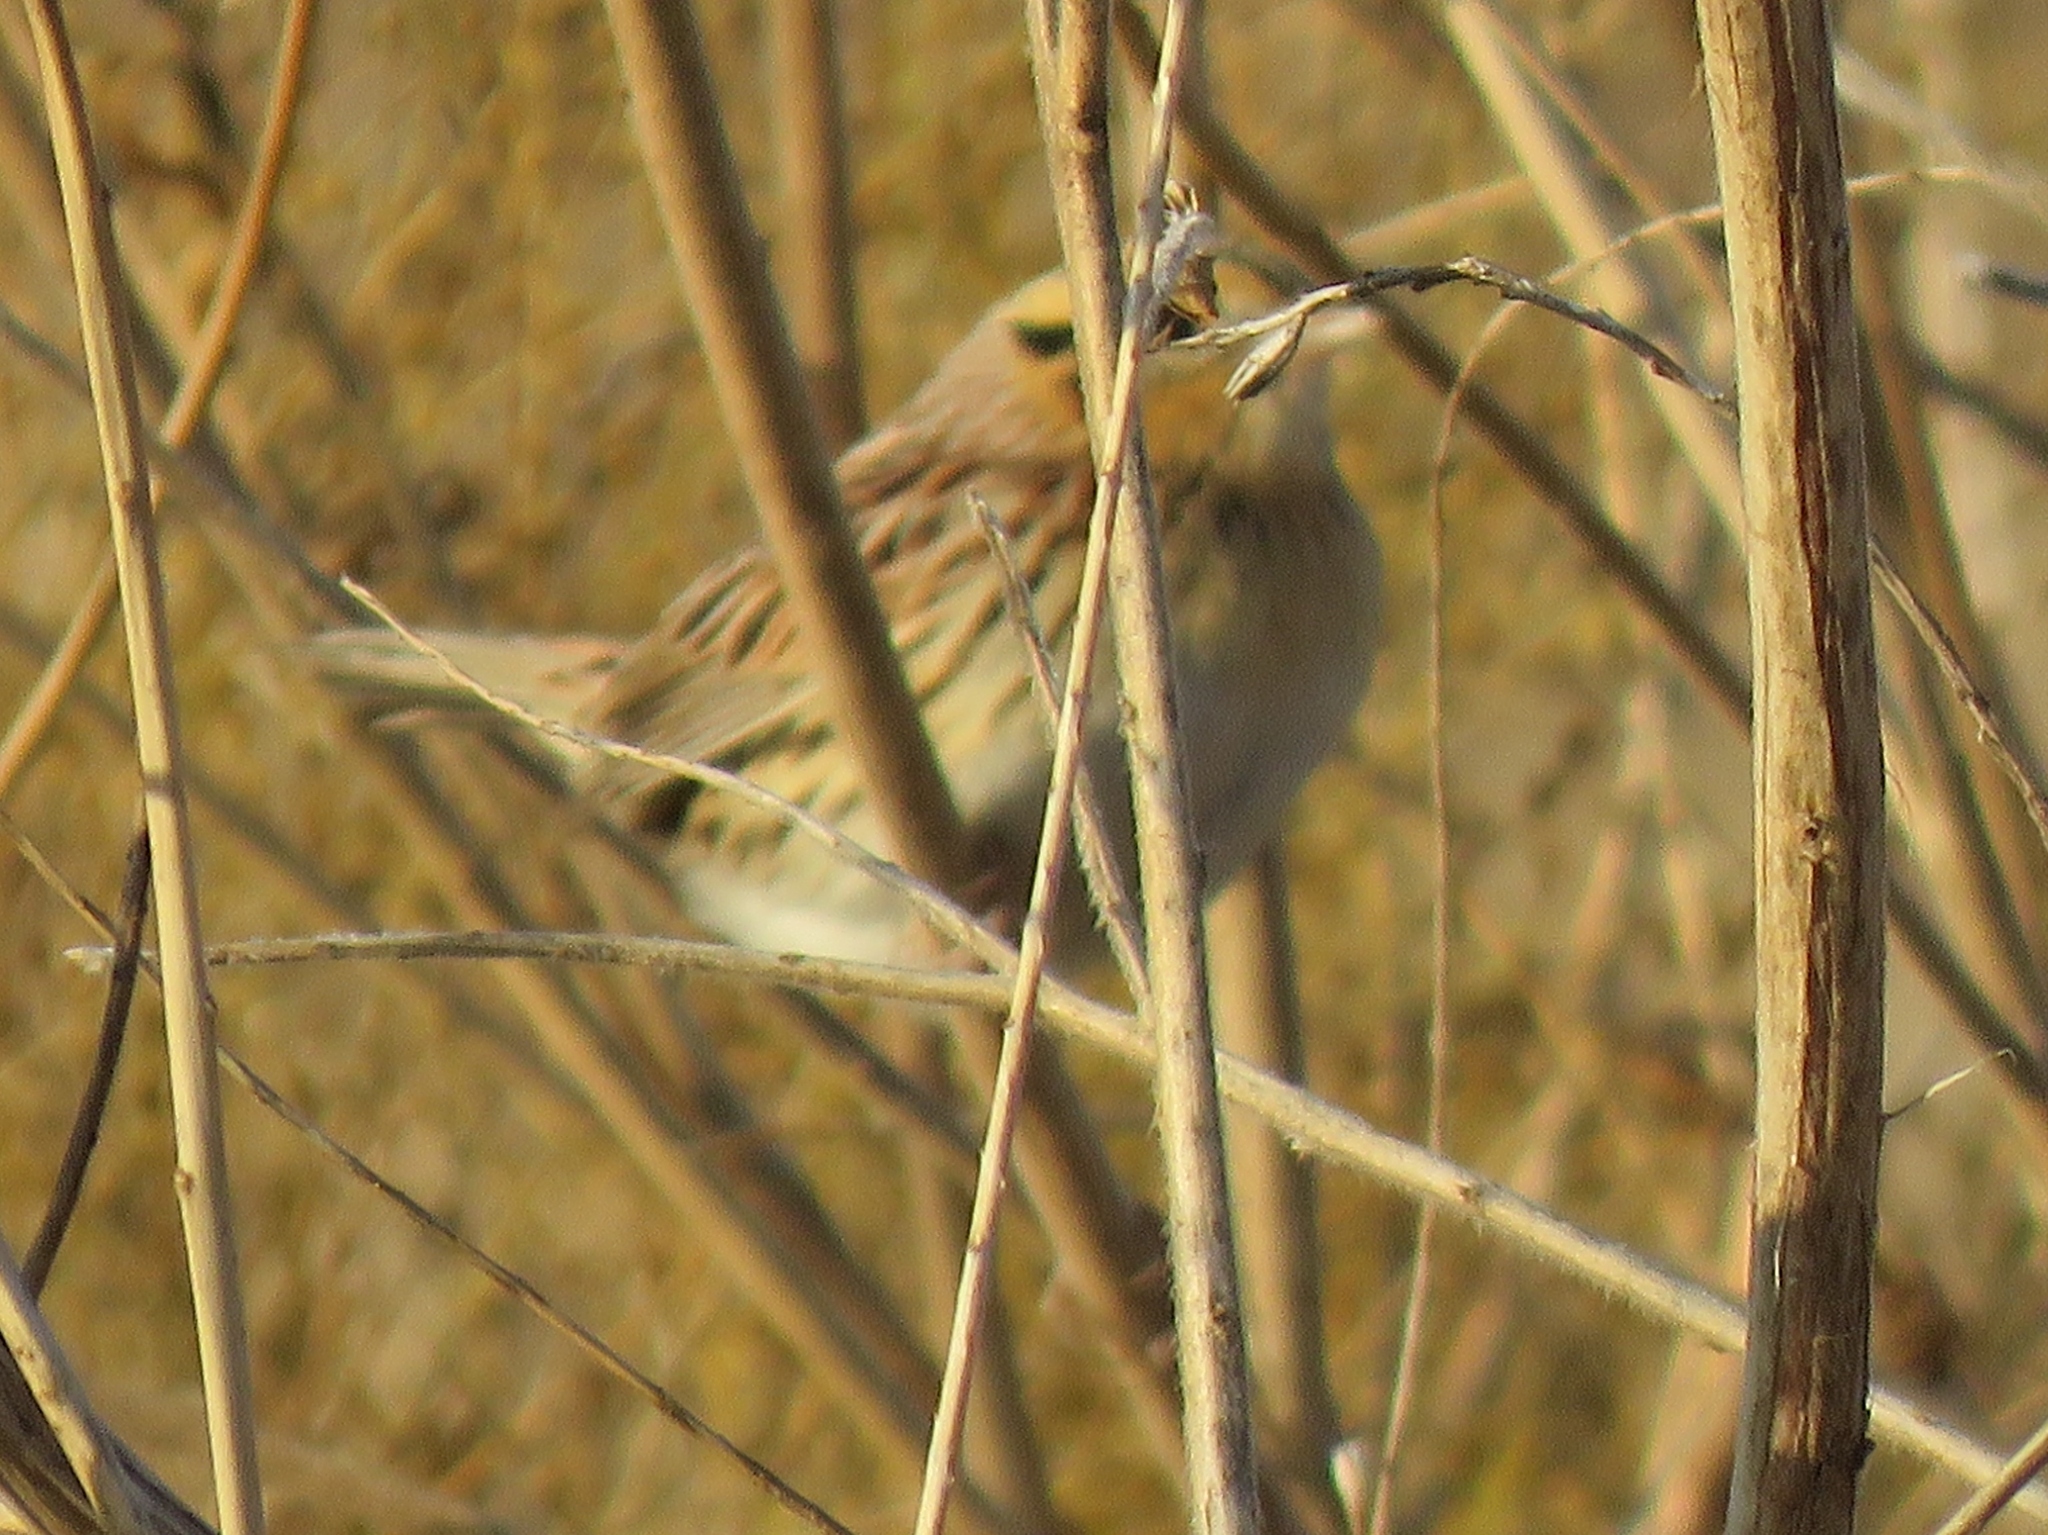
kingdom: Animalia
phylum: Chordata
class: Aves
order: Passeriformes
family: Passerellidae
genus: Ammospiza
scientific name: Ammospiza leconteii
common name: Le conte's sparrow
